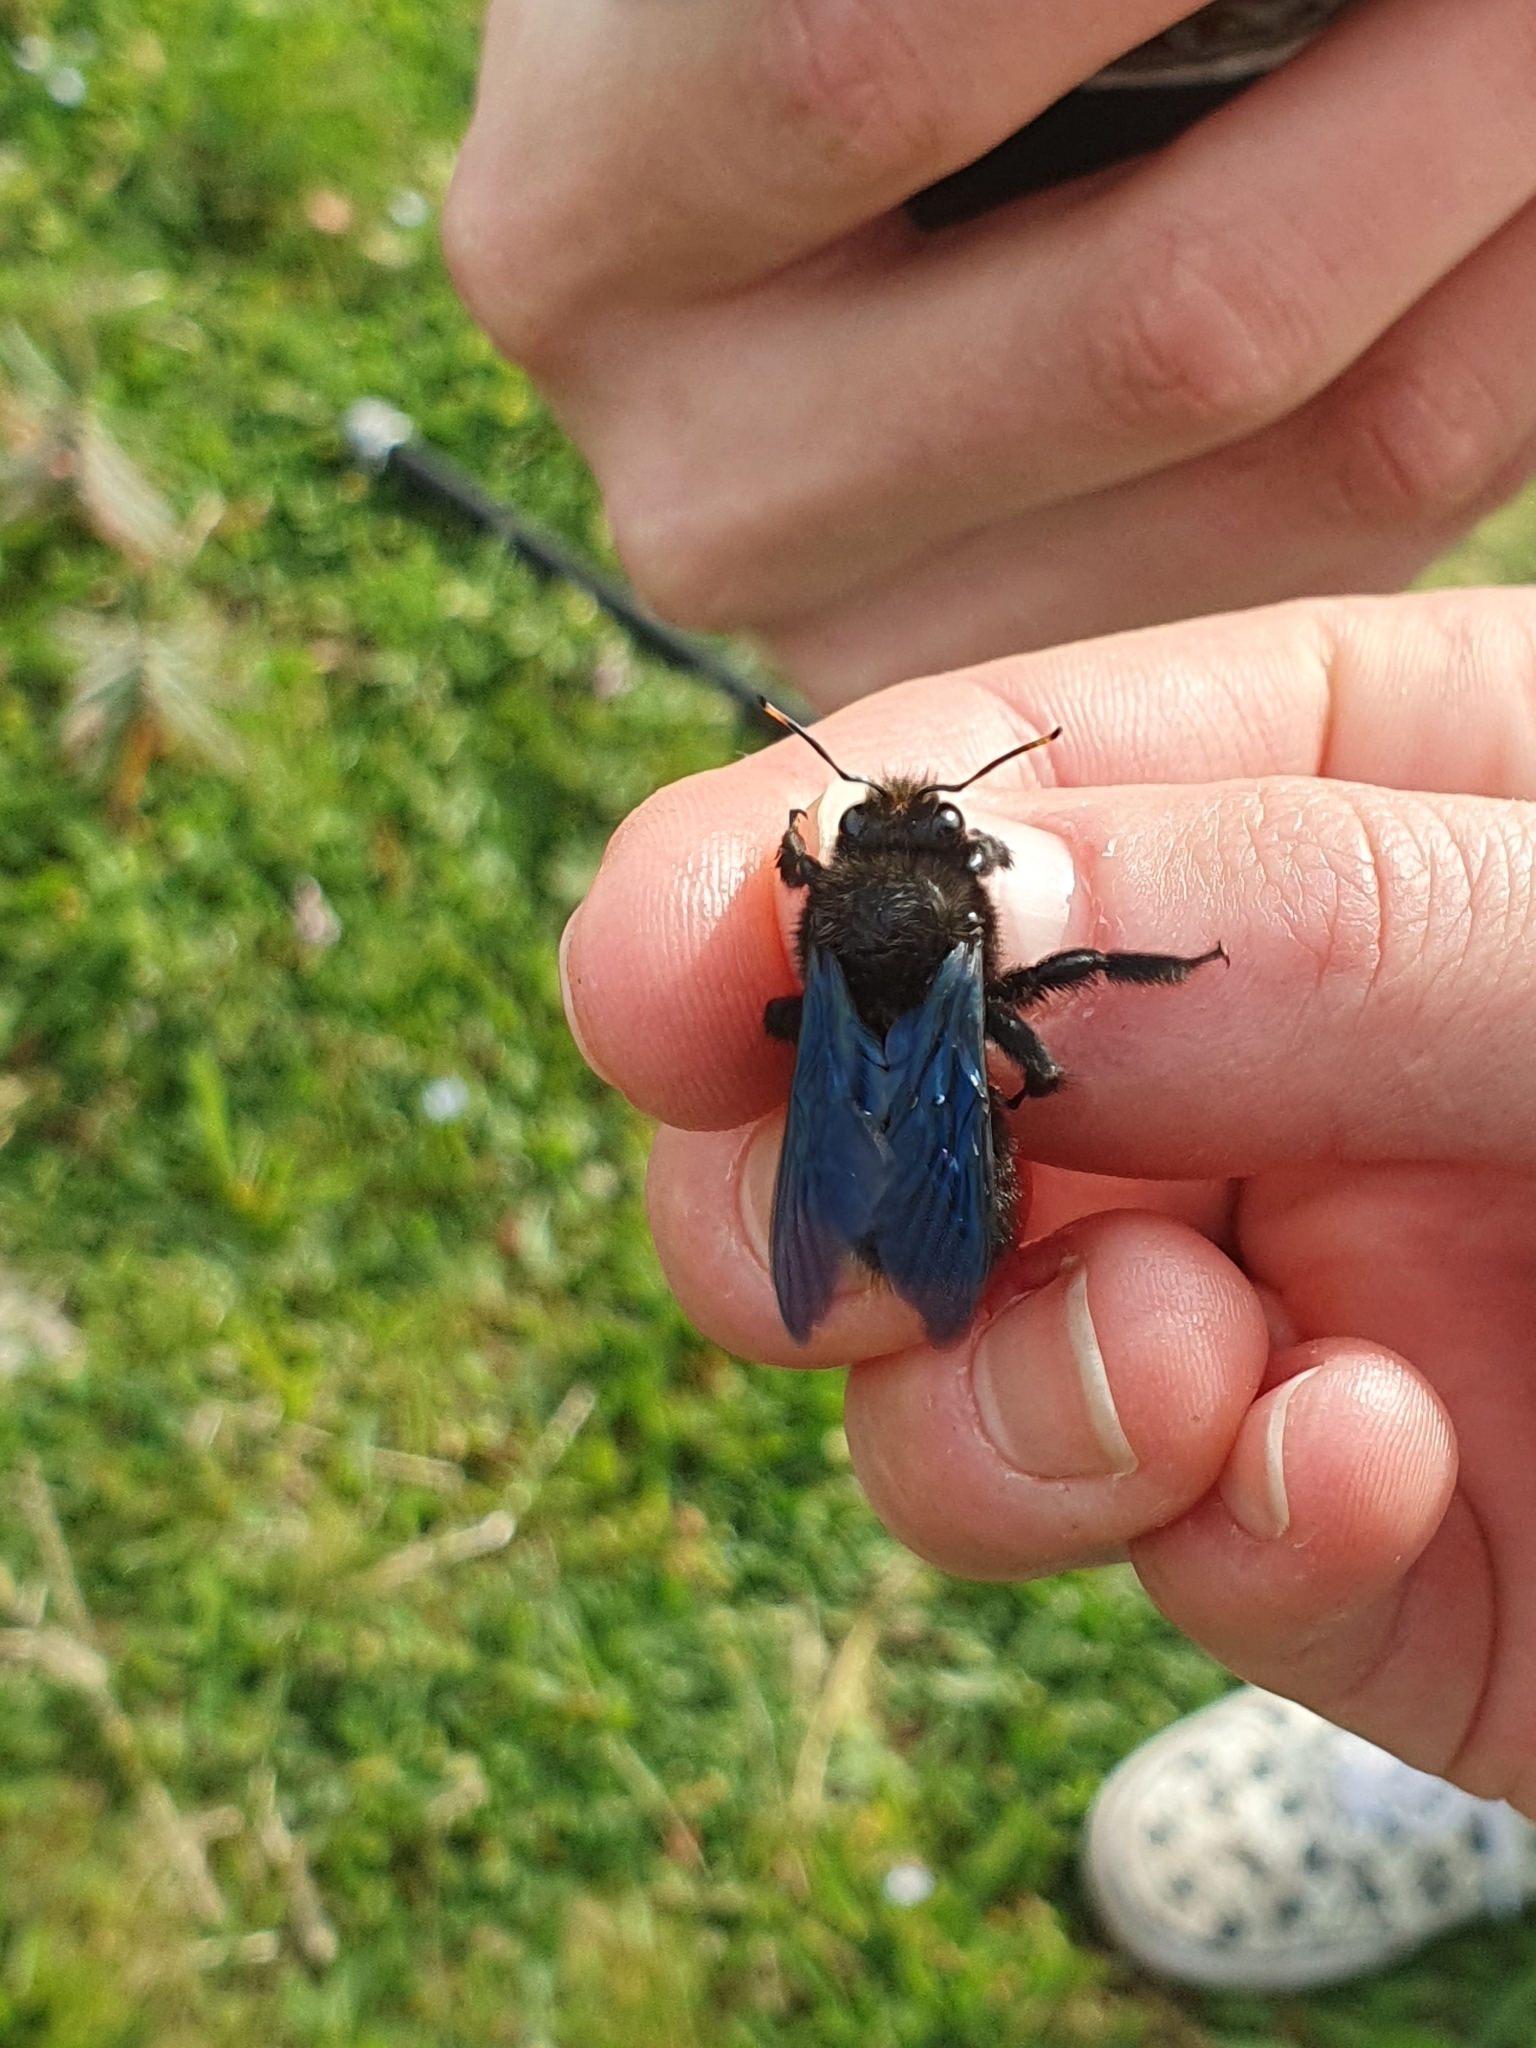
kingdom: Animalia
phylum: Arthropoda
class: Insecta
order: Hymenoptera
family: Apidae
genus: Xylocopa
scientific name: Xylocopa violacea
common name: Violet carpenter bee
